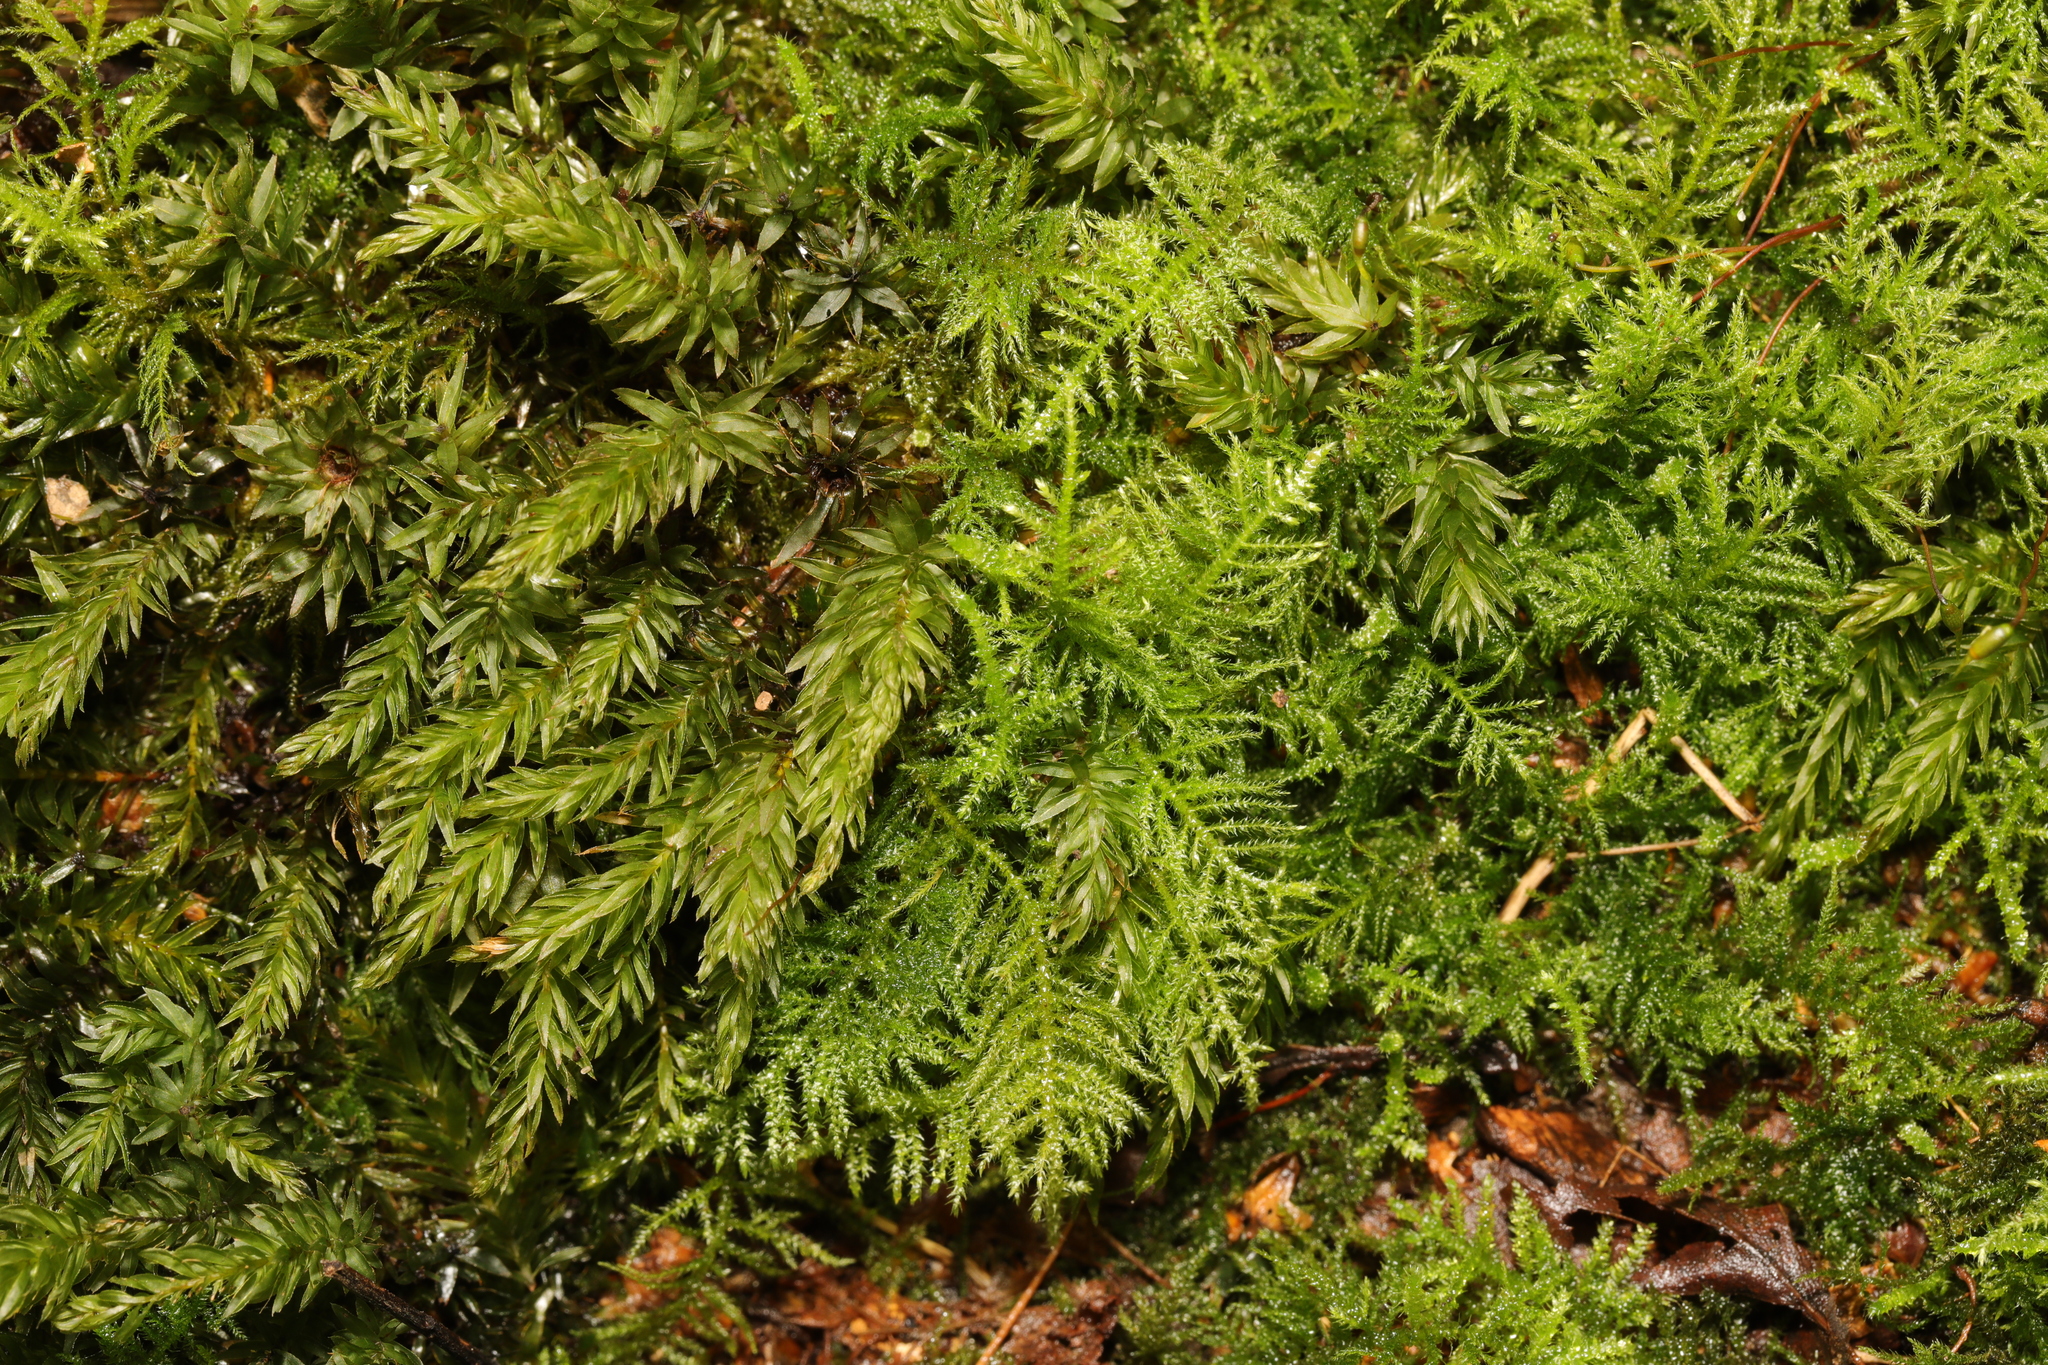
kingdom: Plantae
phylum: Bryophyta
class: Bryopsida
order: Hypnales
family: Brachytheciaceae
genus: Kindbergia
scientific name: Kindbergia praelonga
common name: Slender beaked moss
